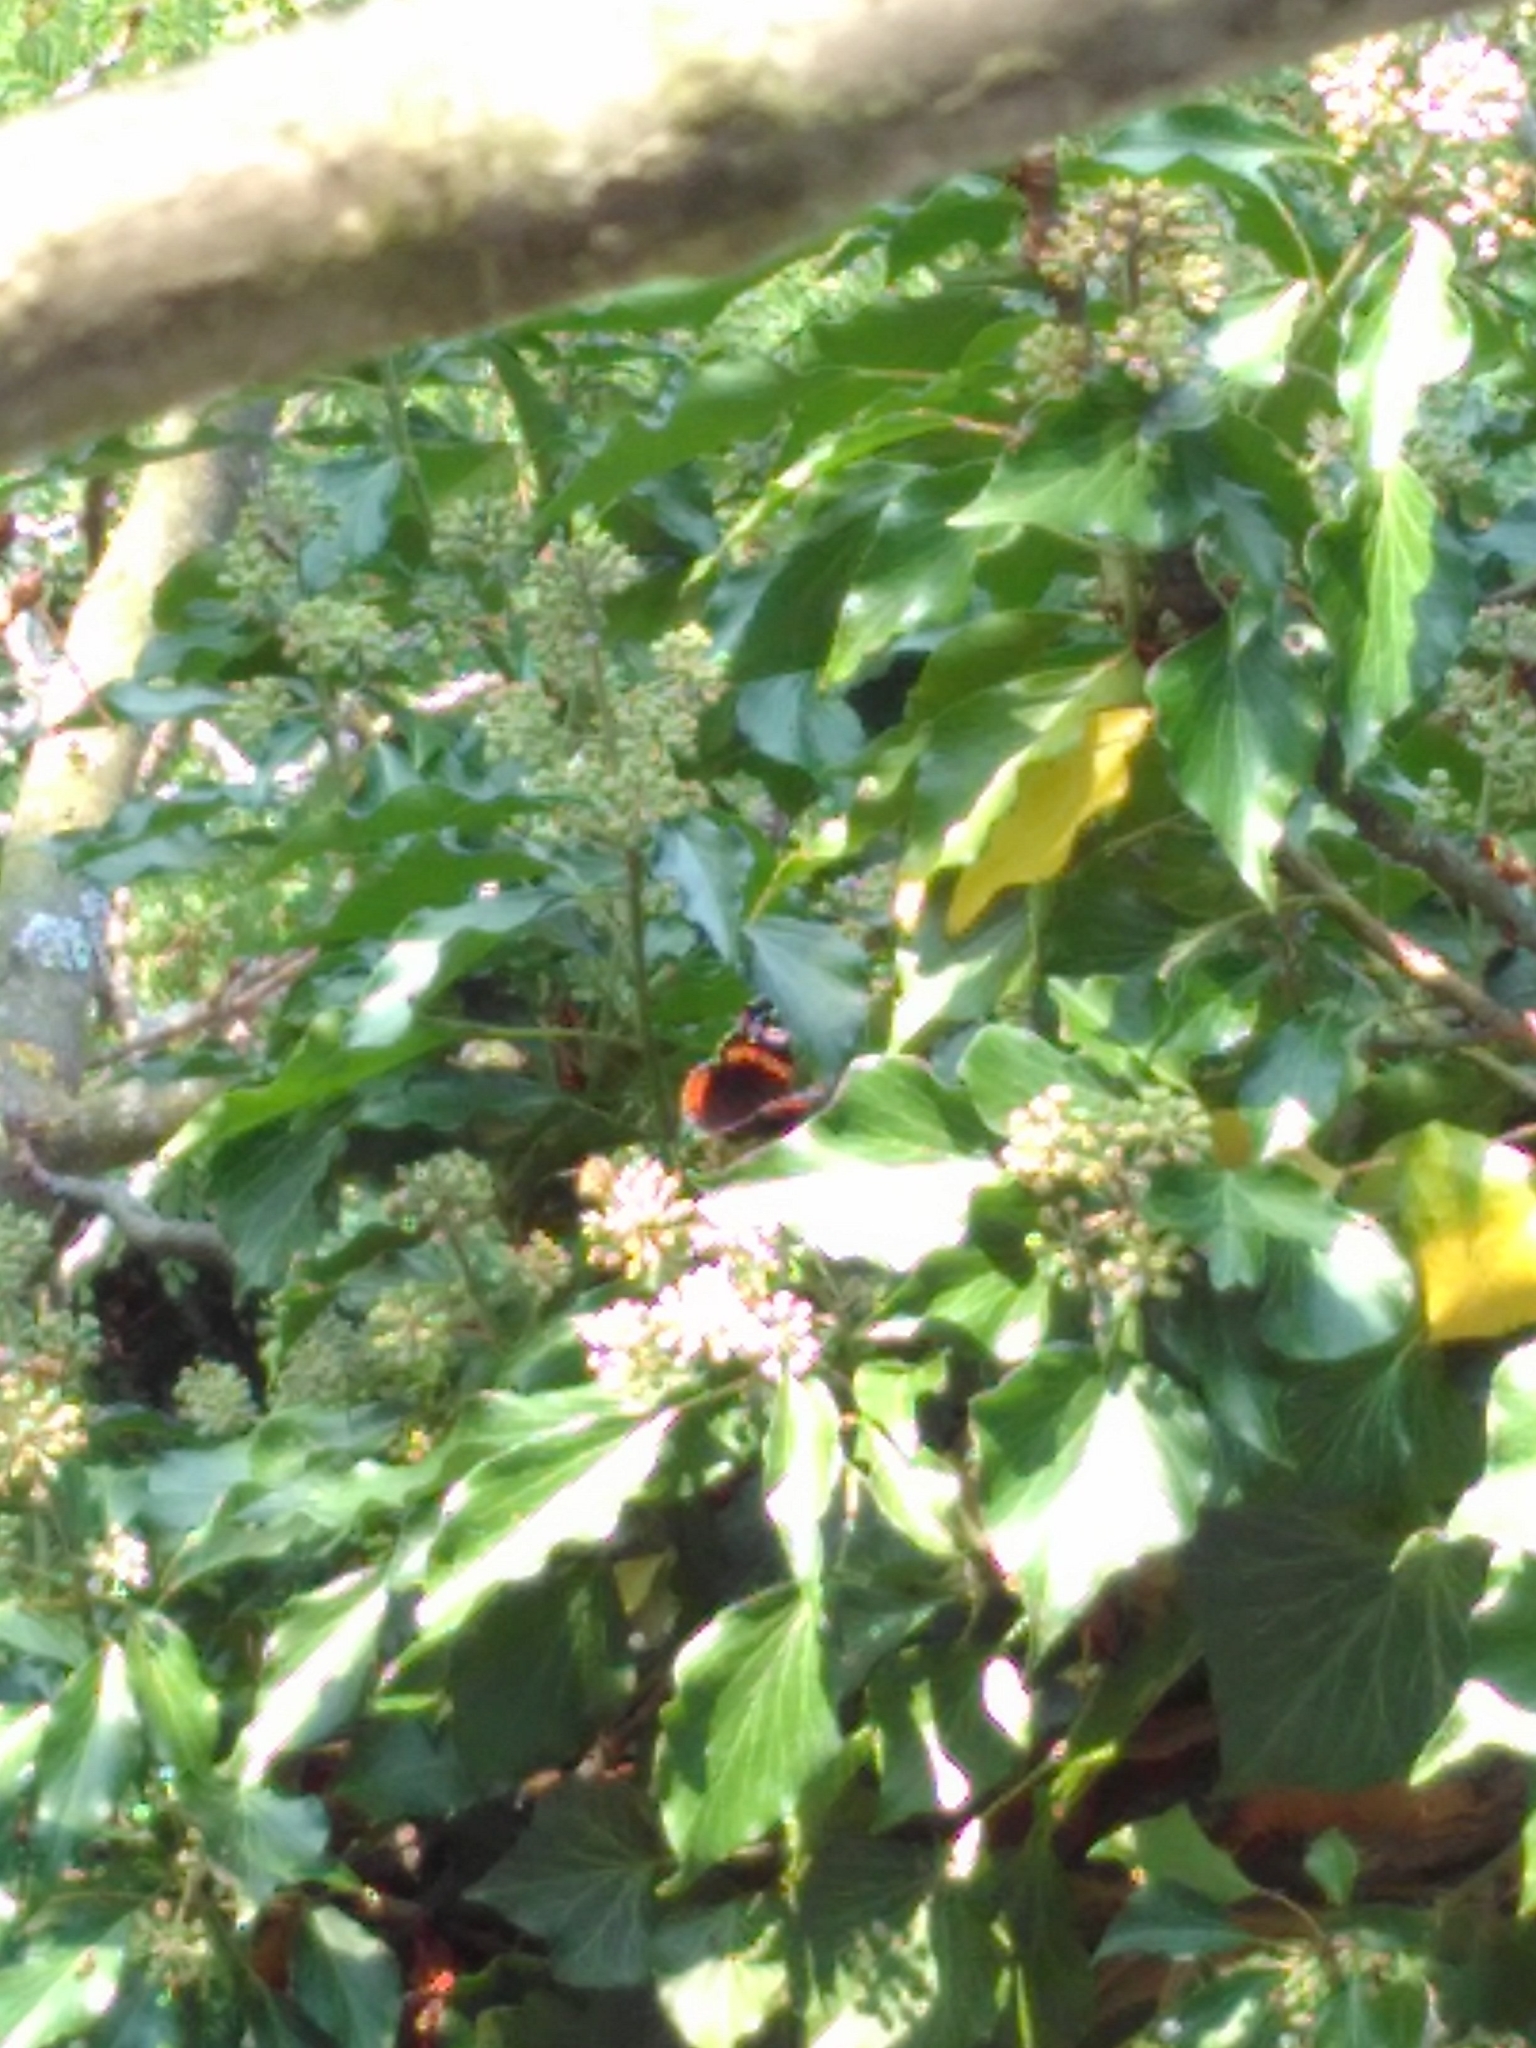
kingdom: Animalia
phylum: Arthropoda
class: Insecta
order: Lepidoptera
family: Nymphalidae
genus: Vanessa
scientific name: Vanessa atalanta
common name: Red admiral
